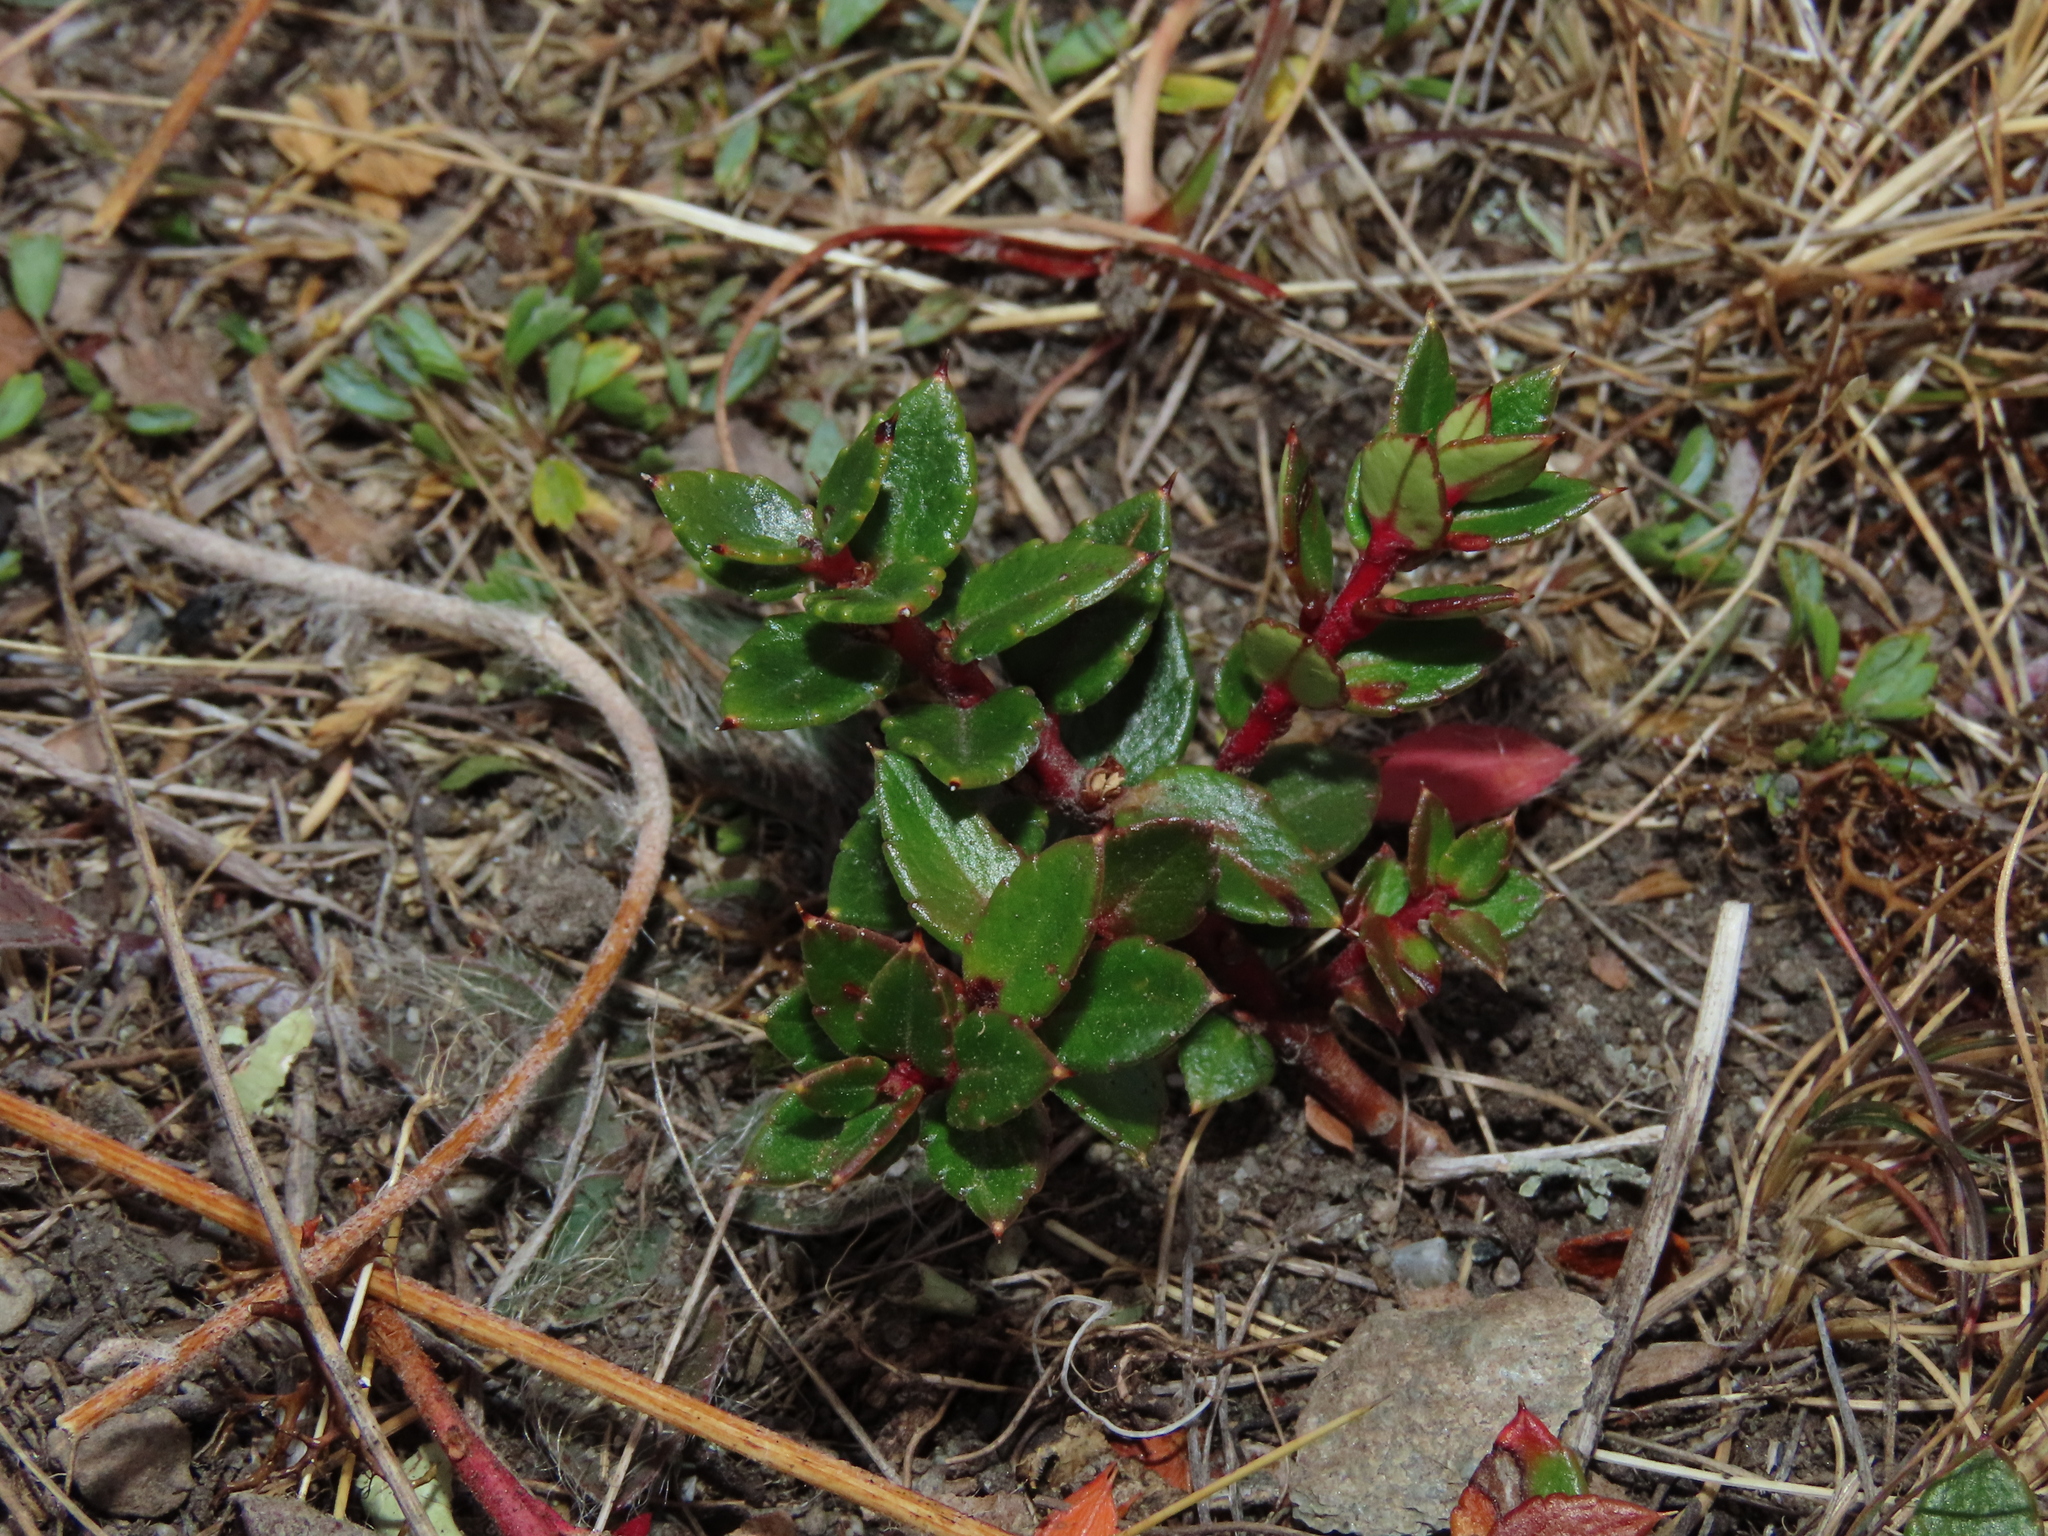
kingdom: Plantae
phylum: Tracheophyta
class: Magnoliopsida
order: Ericales
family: Ericaceae
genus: Gaultheria
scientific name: Gaultheria mucronata
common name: Prickly heath
